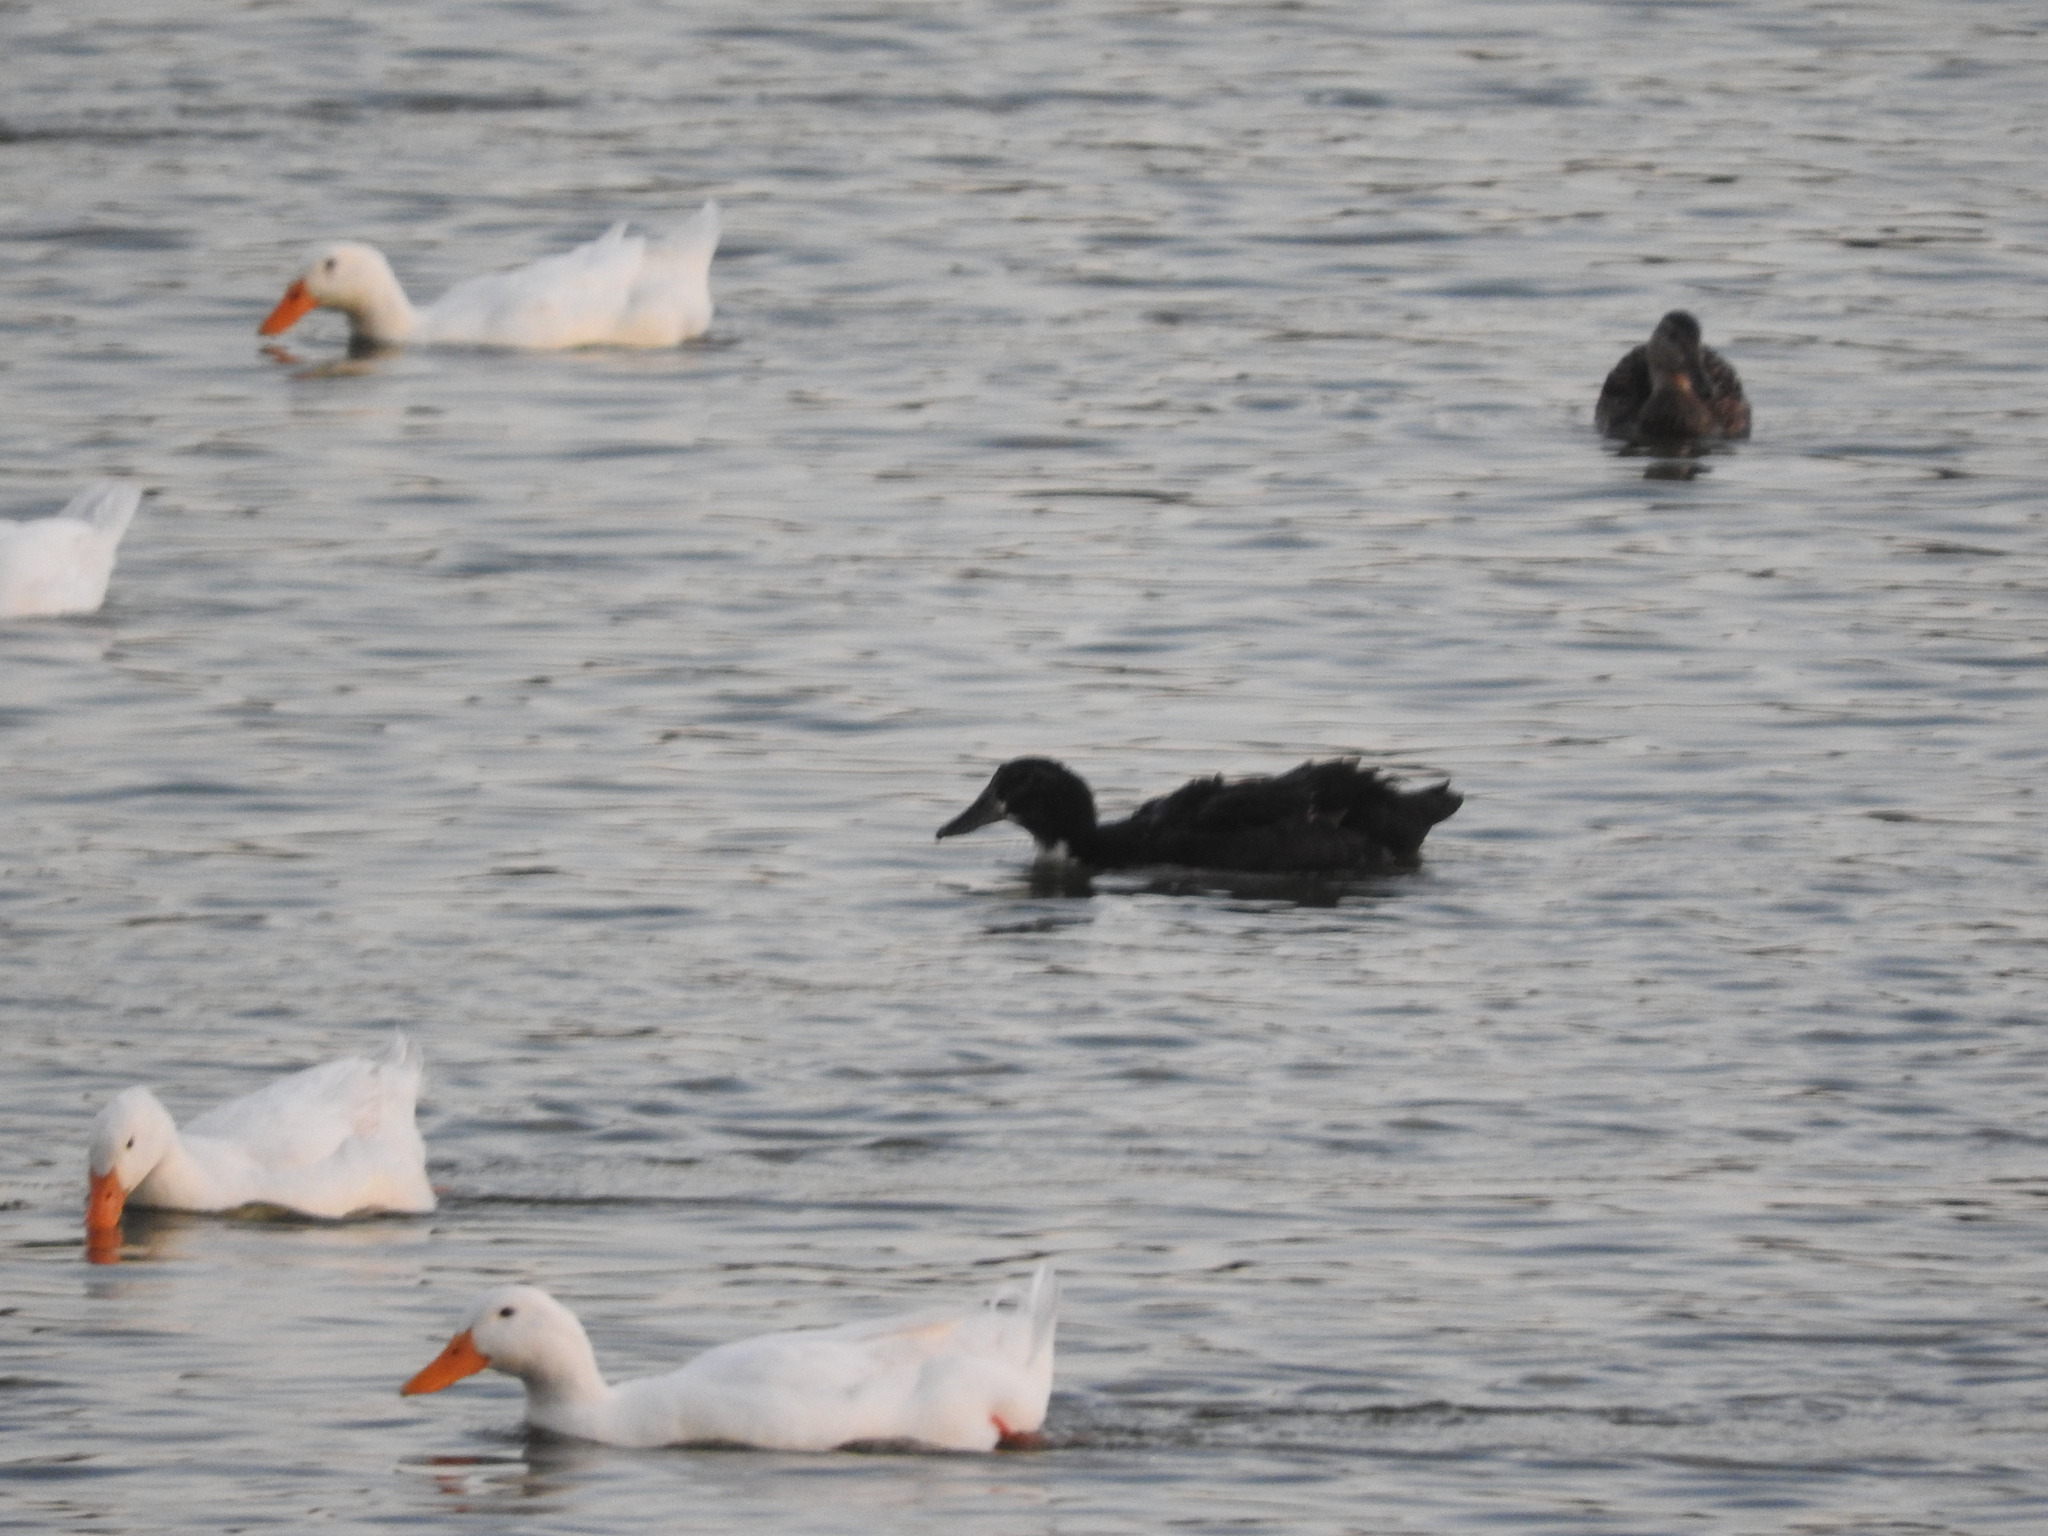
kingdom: Animalia
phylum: Chordata
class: Aves
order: Anseriformes
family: Anatidae
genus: Anas
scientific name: Anas platyrhynchos
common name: Mallard
